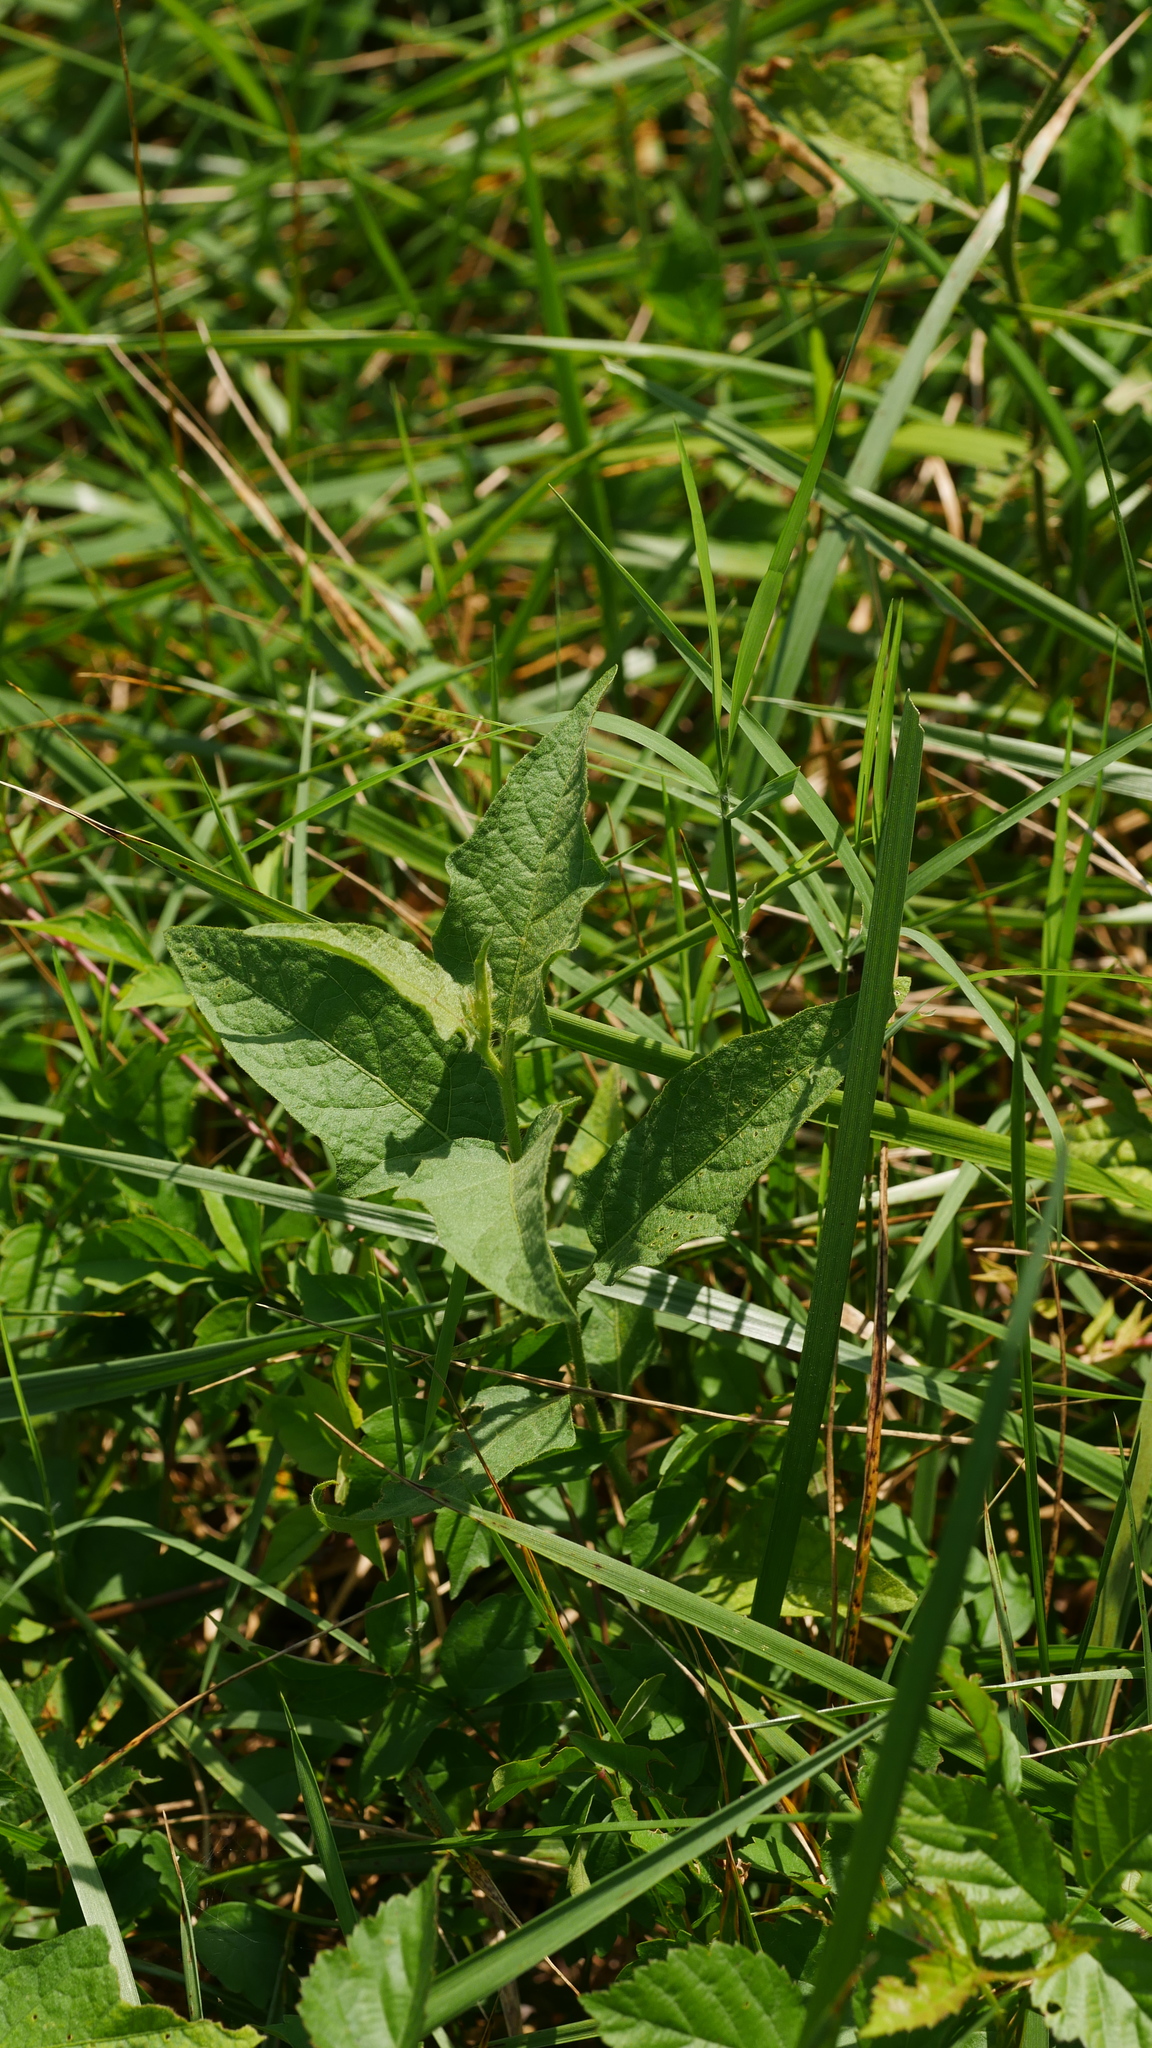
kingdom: Plantae
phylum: Tracheophyta
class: Magnoliopsida
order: Solanales
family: Solanaceae
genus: Solanum
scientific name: Solanum carolinense
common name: Horse-nettle
